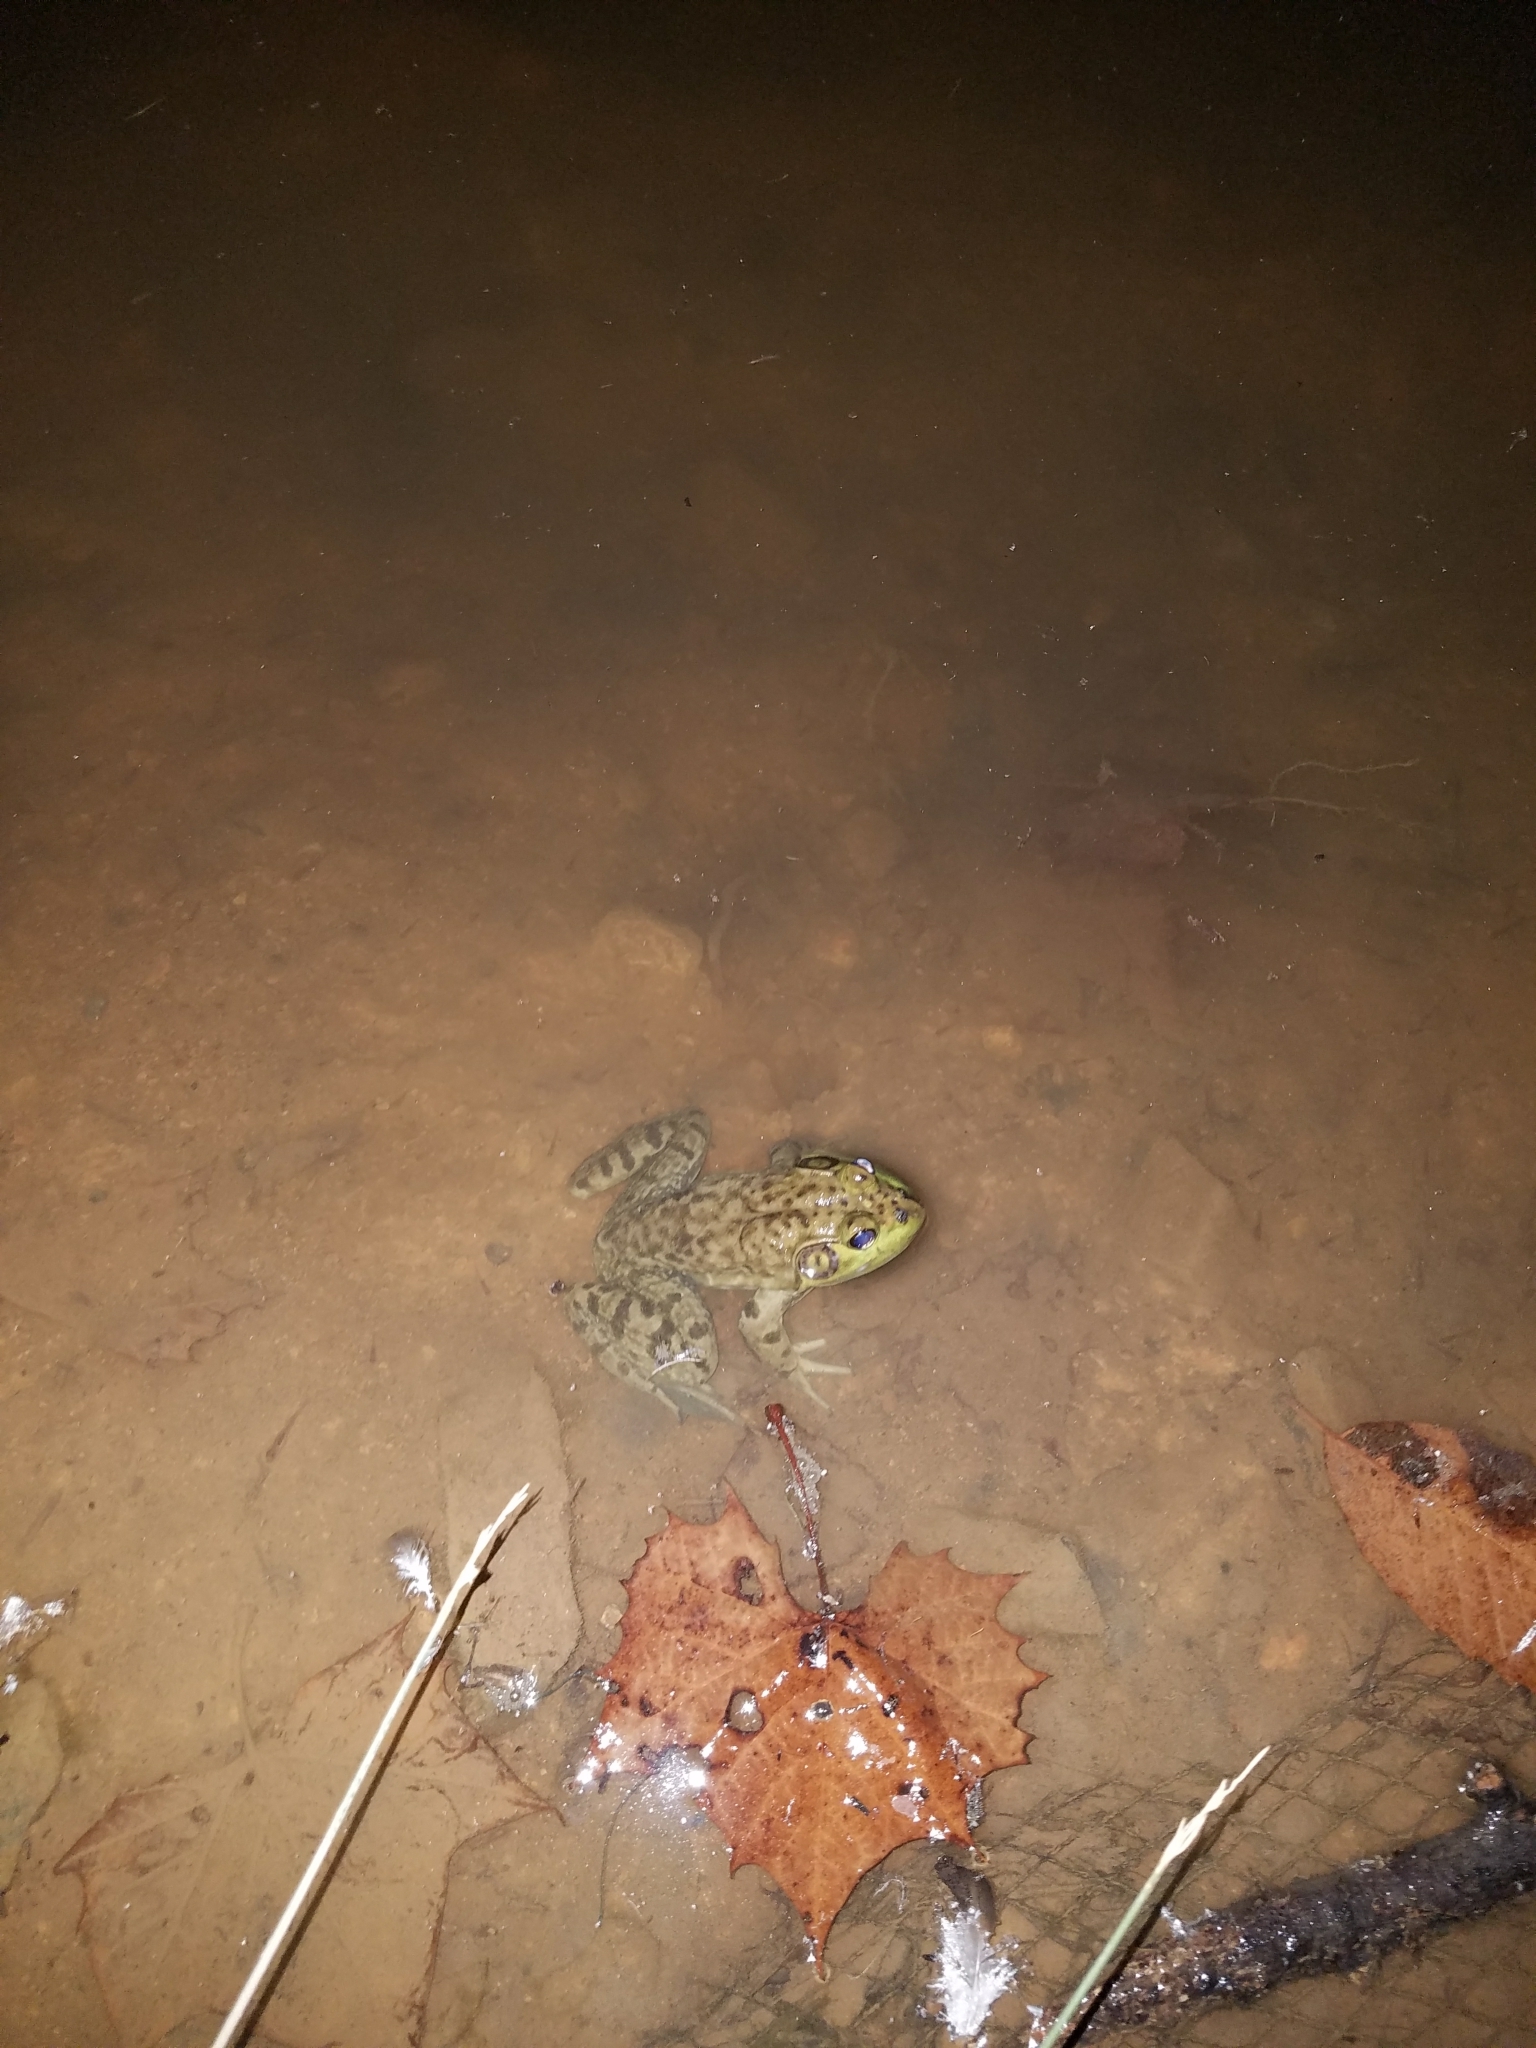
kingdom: Animalia
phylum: Chordata
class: Amphibia
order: Anura
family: Ranidae
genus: Lithobates
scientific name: Lithobates catesbeianus
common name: American bullfrog
